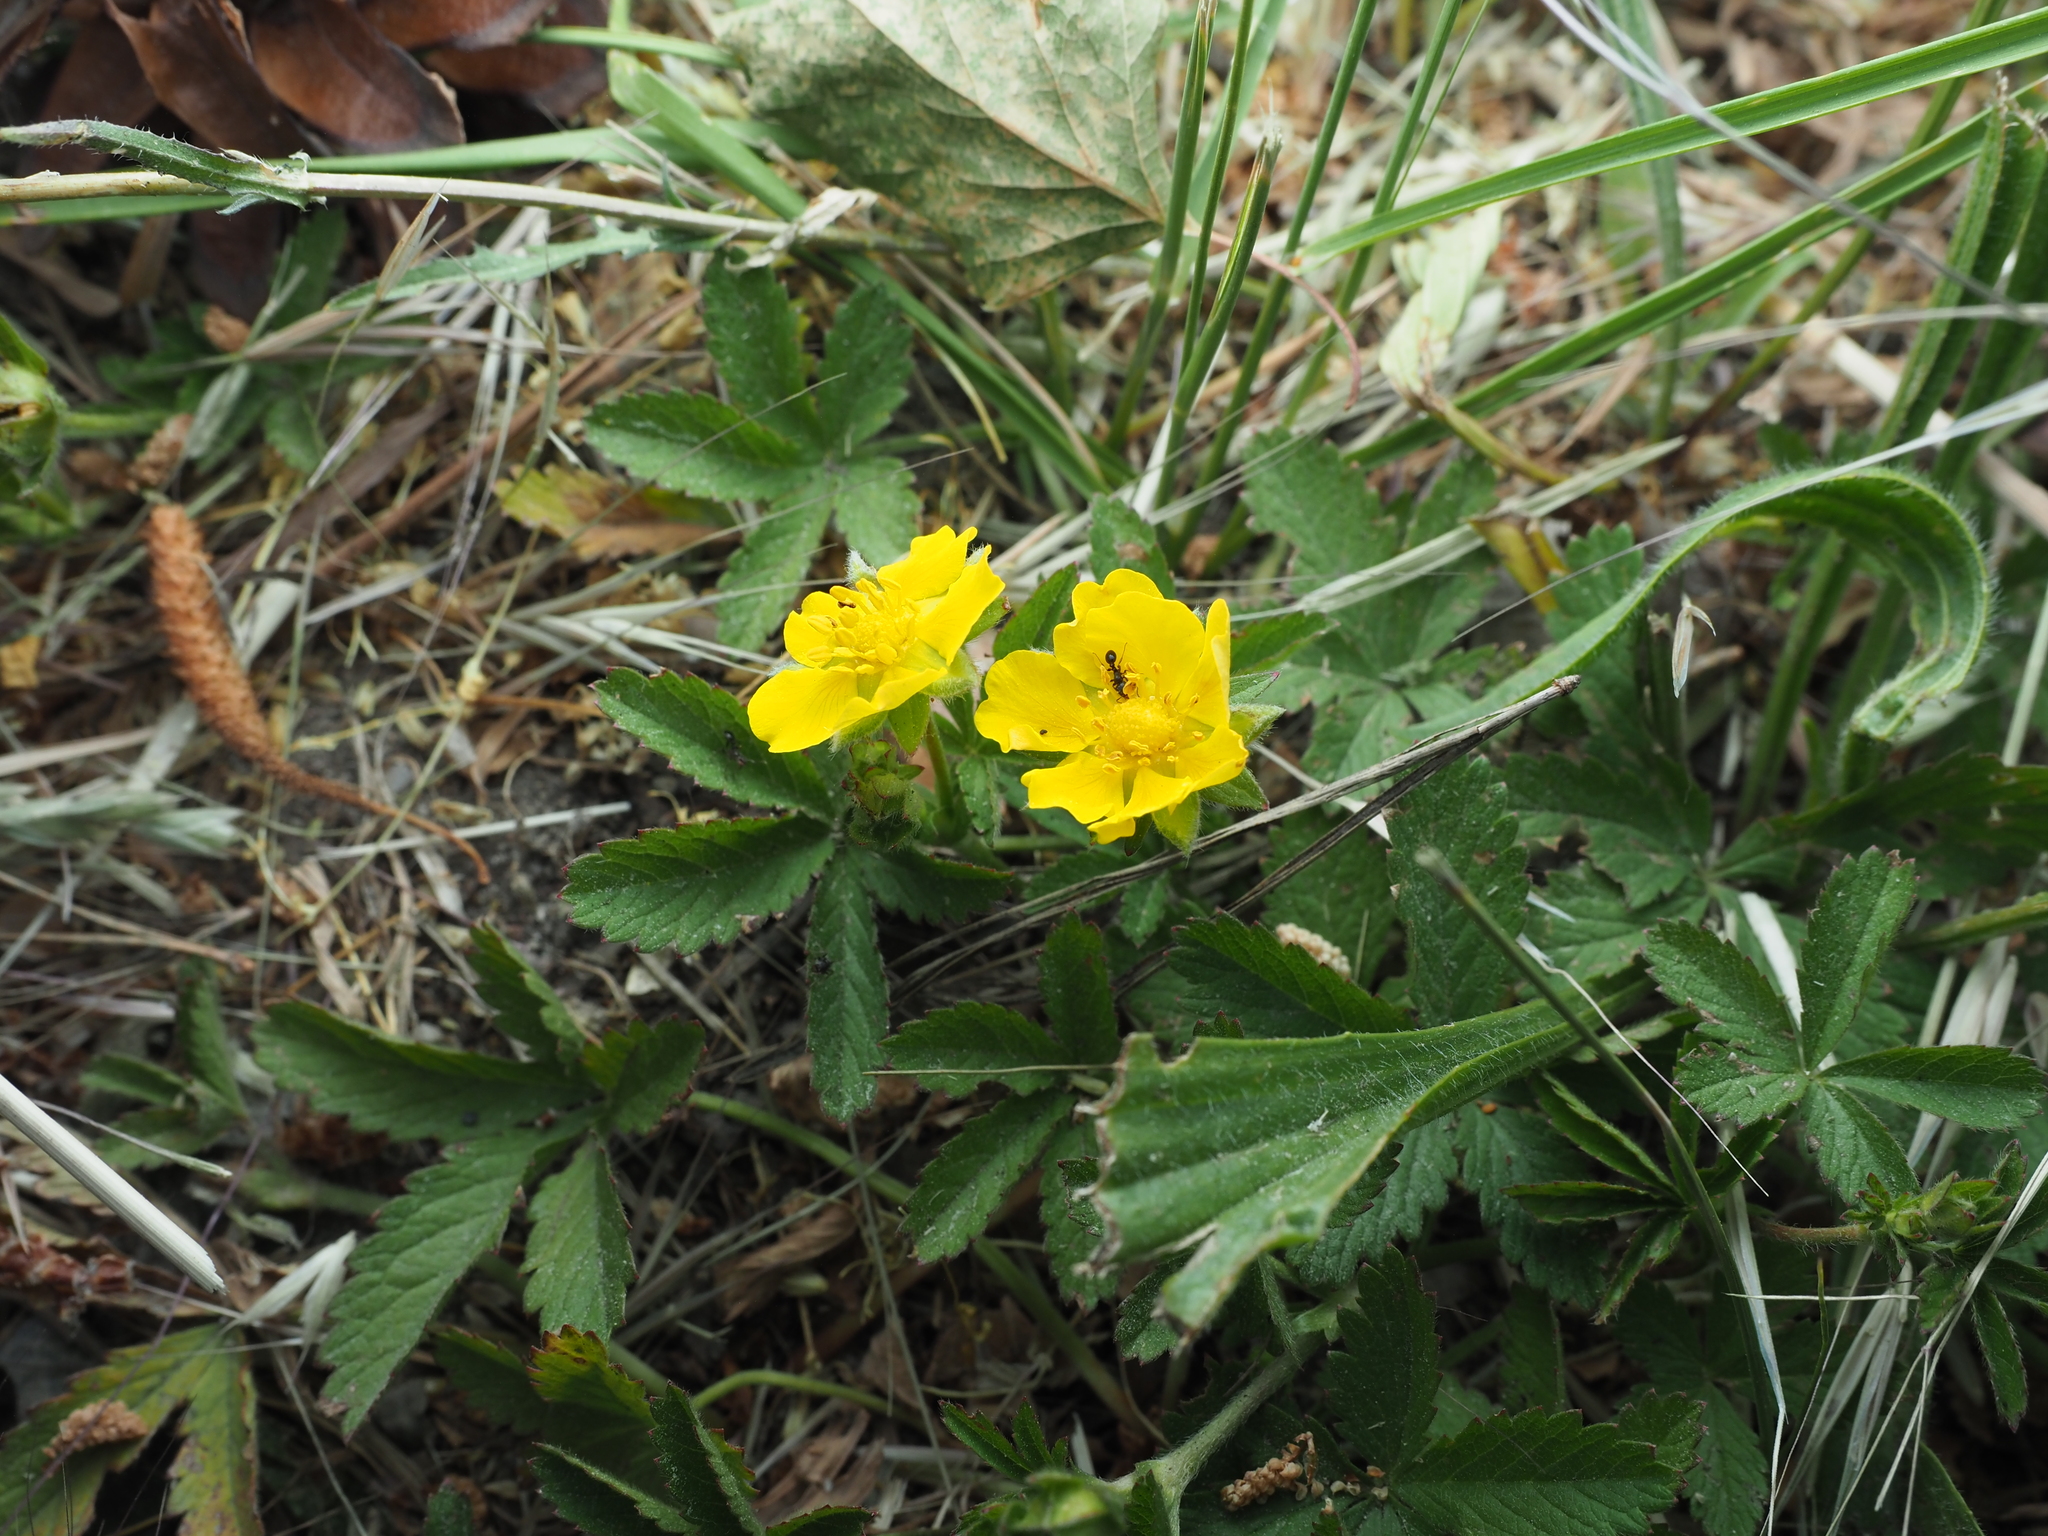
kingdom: Plantae
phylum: Tracheophyta
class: Magnoliopsida
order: Rosales
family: Rosaceae
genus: Potentilla
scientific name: Potentilla reptans
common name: Creeping cinquefoil
